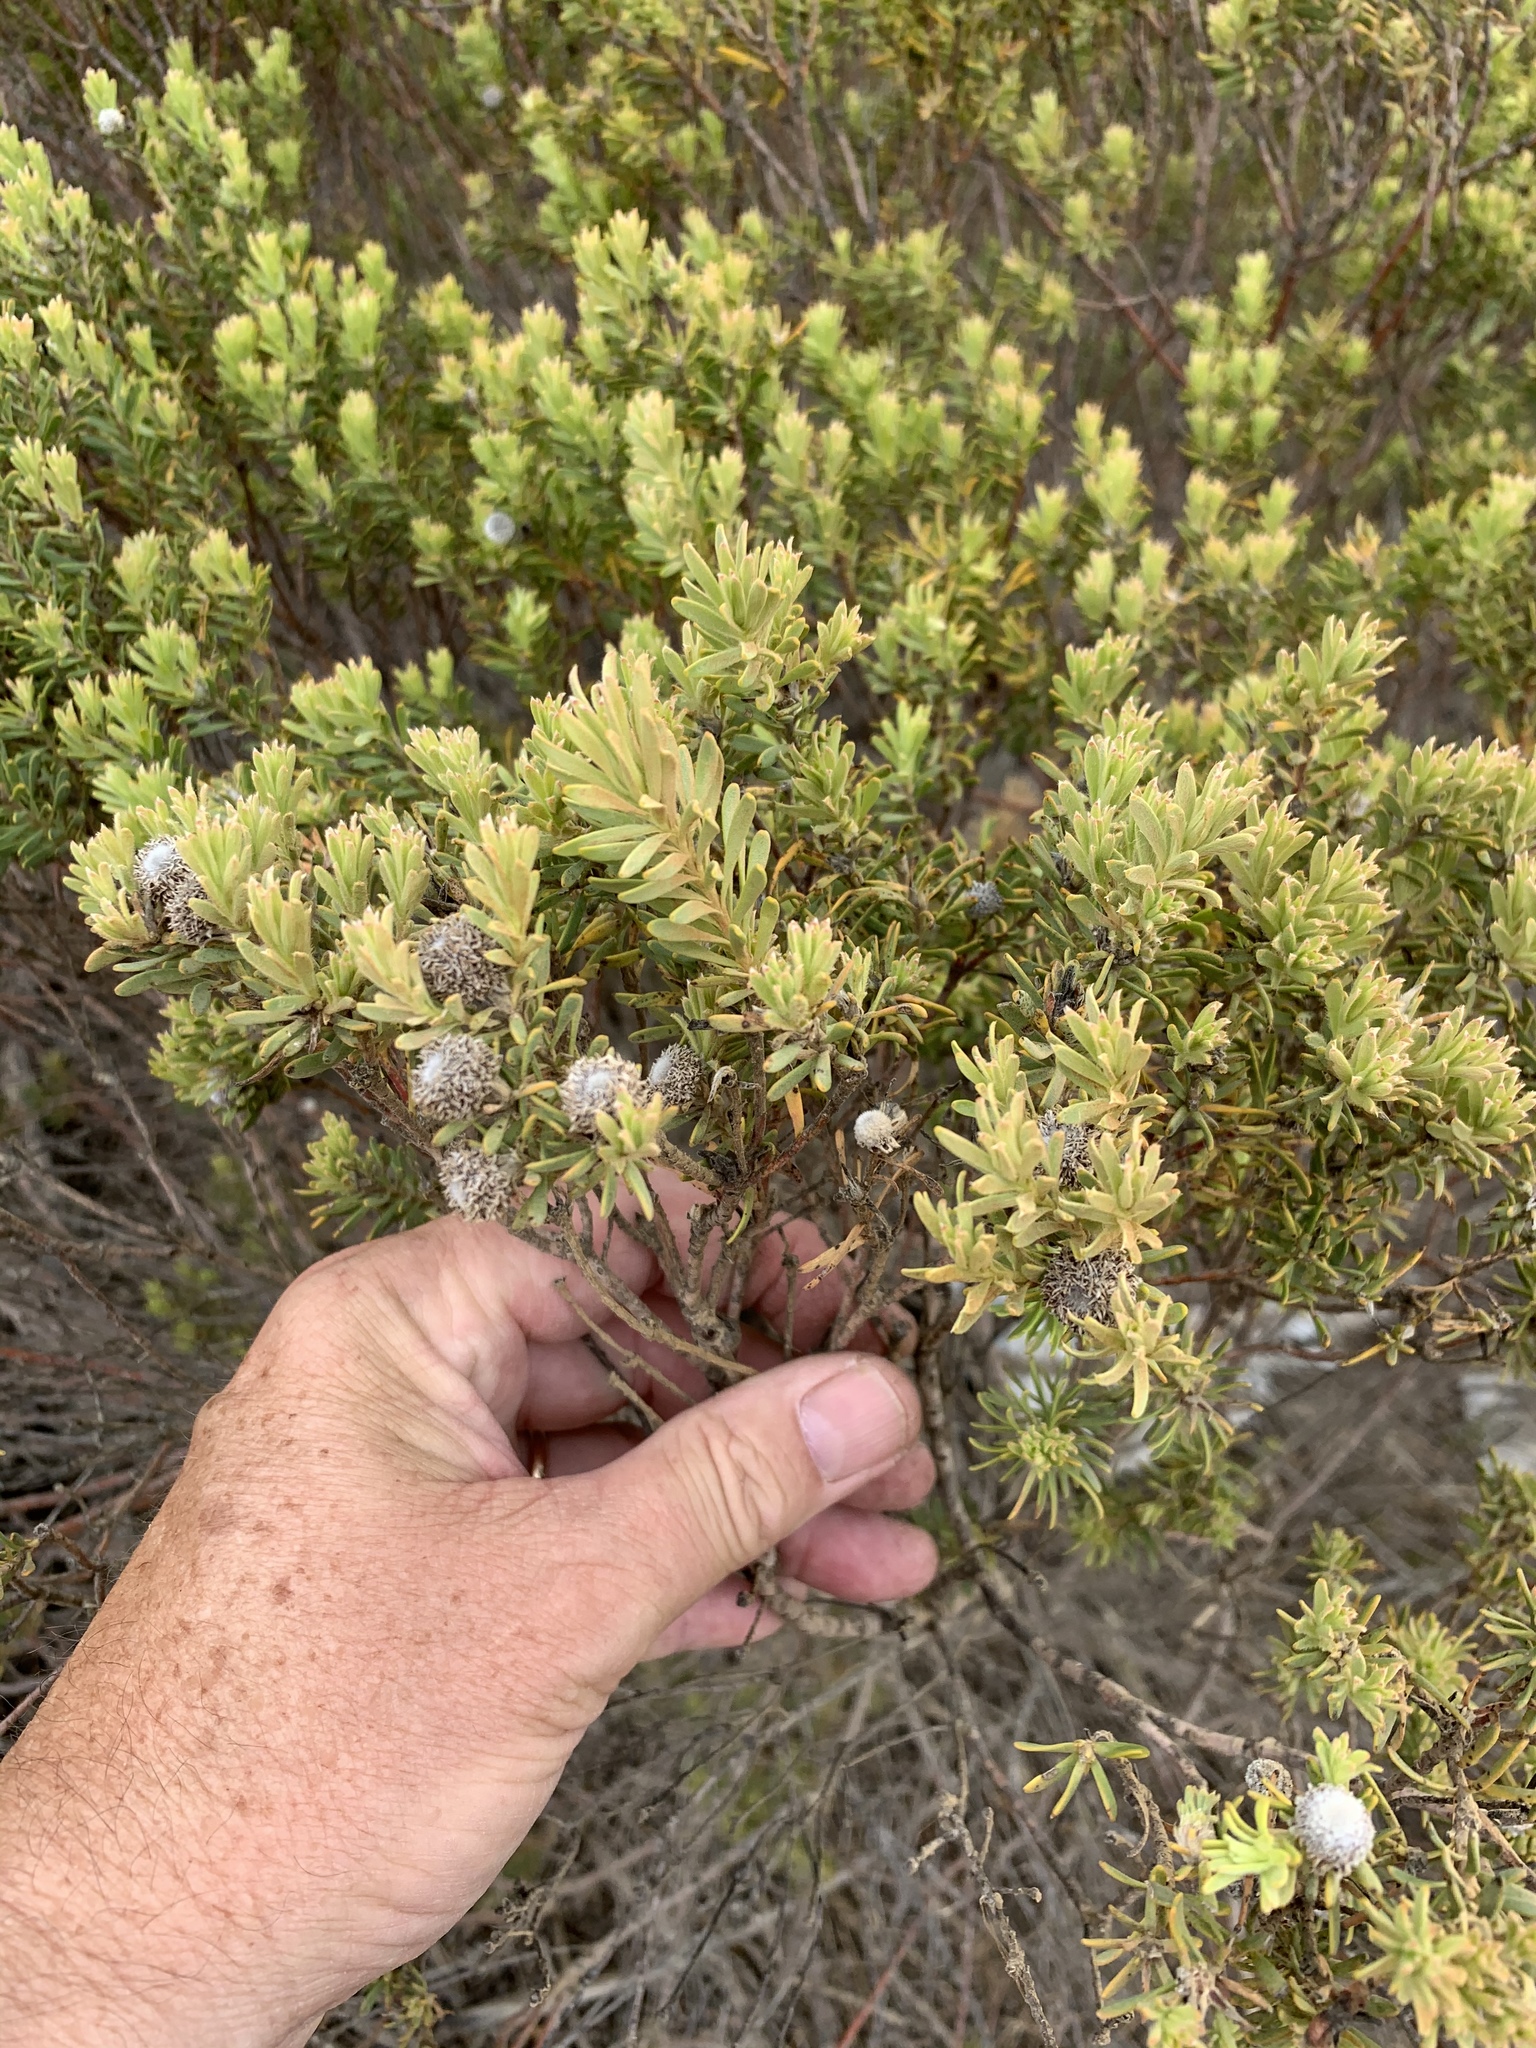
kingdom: Plantae
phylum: Tracheophyta
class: Magnoliopsida
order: Proteales
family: Proteaceae
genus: Leucadendron
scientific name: Leucadendron linifolium
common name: Line-leaf conebush
